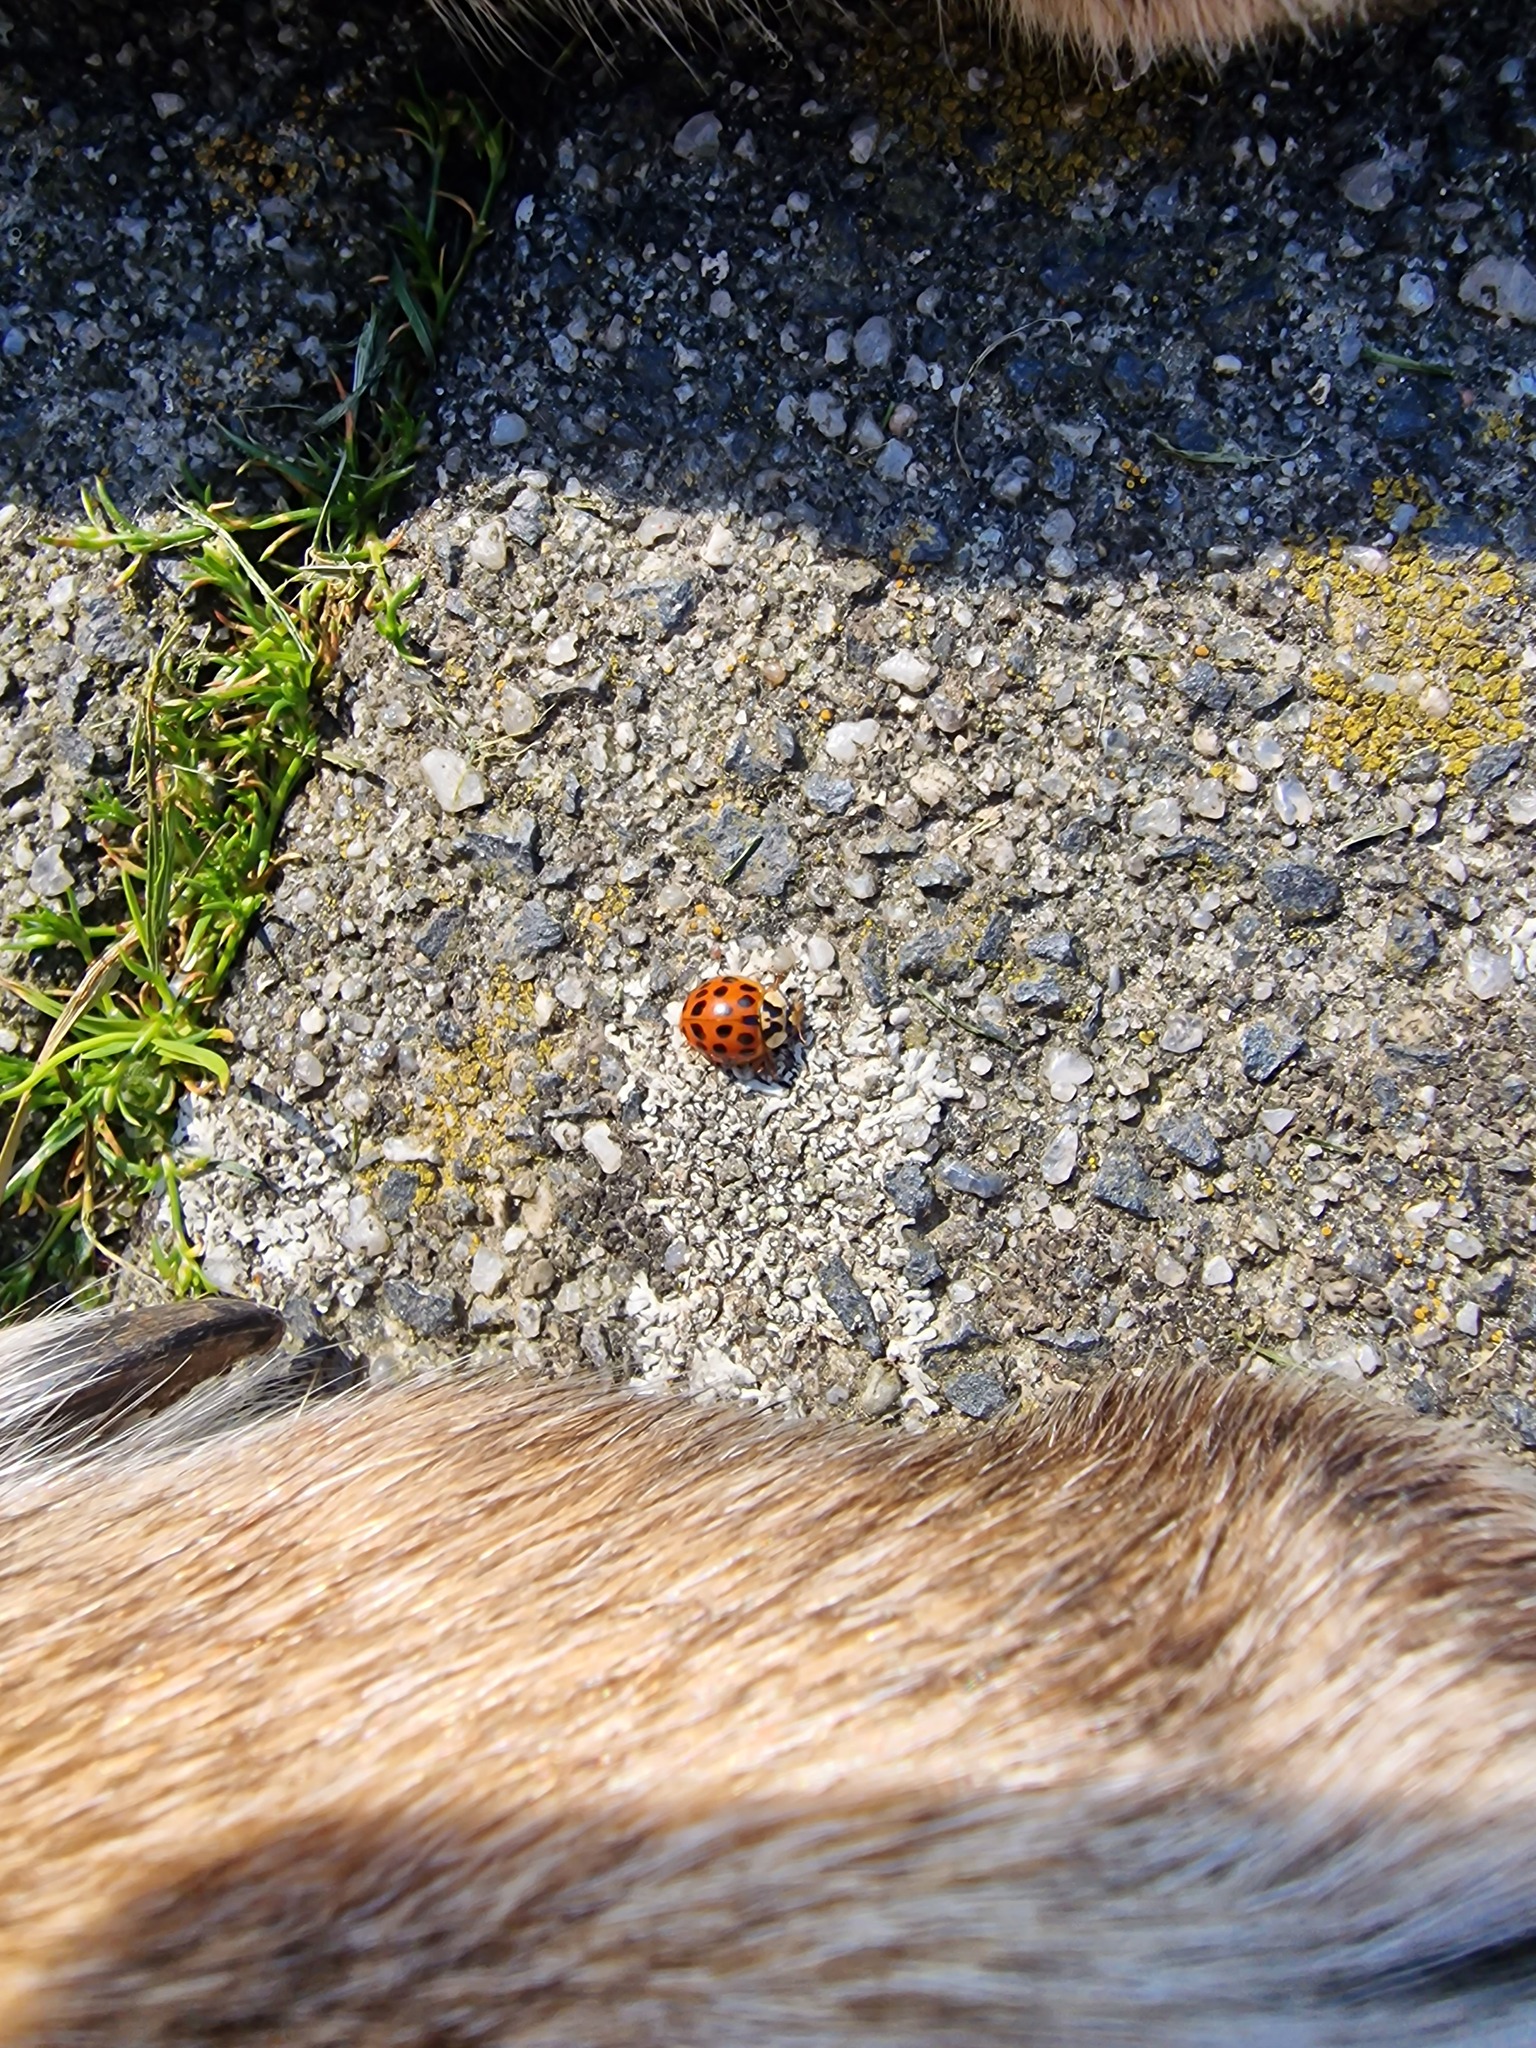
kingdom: Animalia
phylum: Arthropoda
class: Insecta
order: Coleoptera
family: Coccinellidae
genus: Harmonia
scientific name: Harmonia axyridis
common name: Harlequin ladybird
